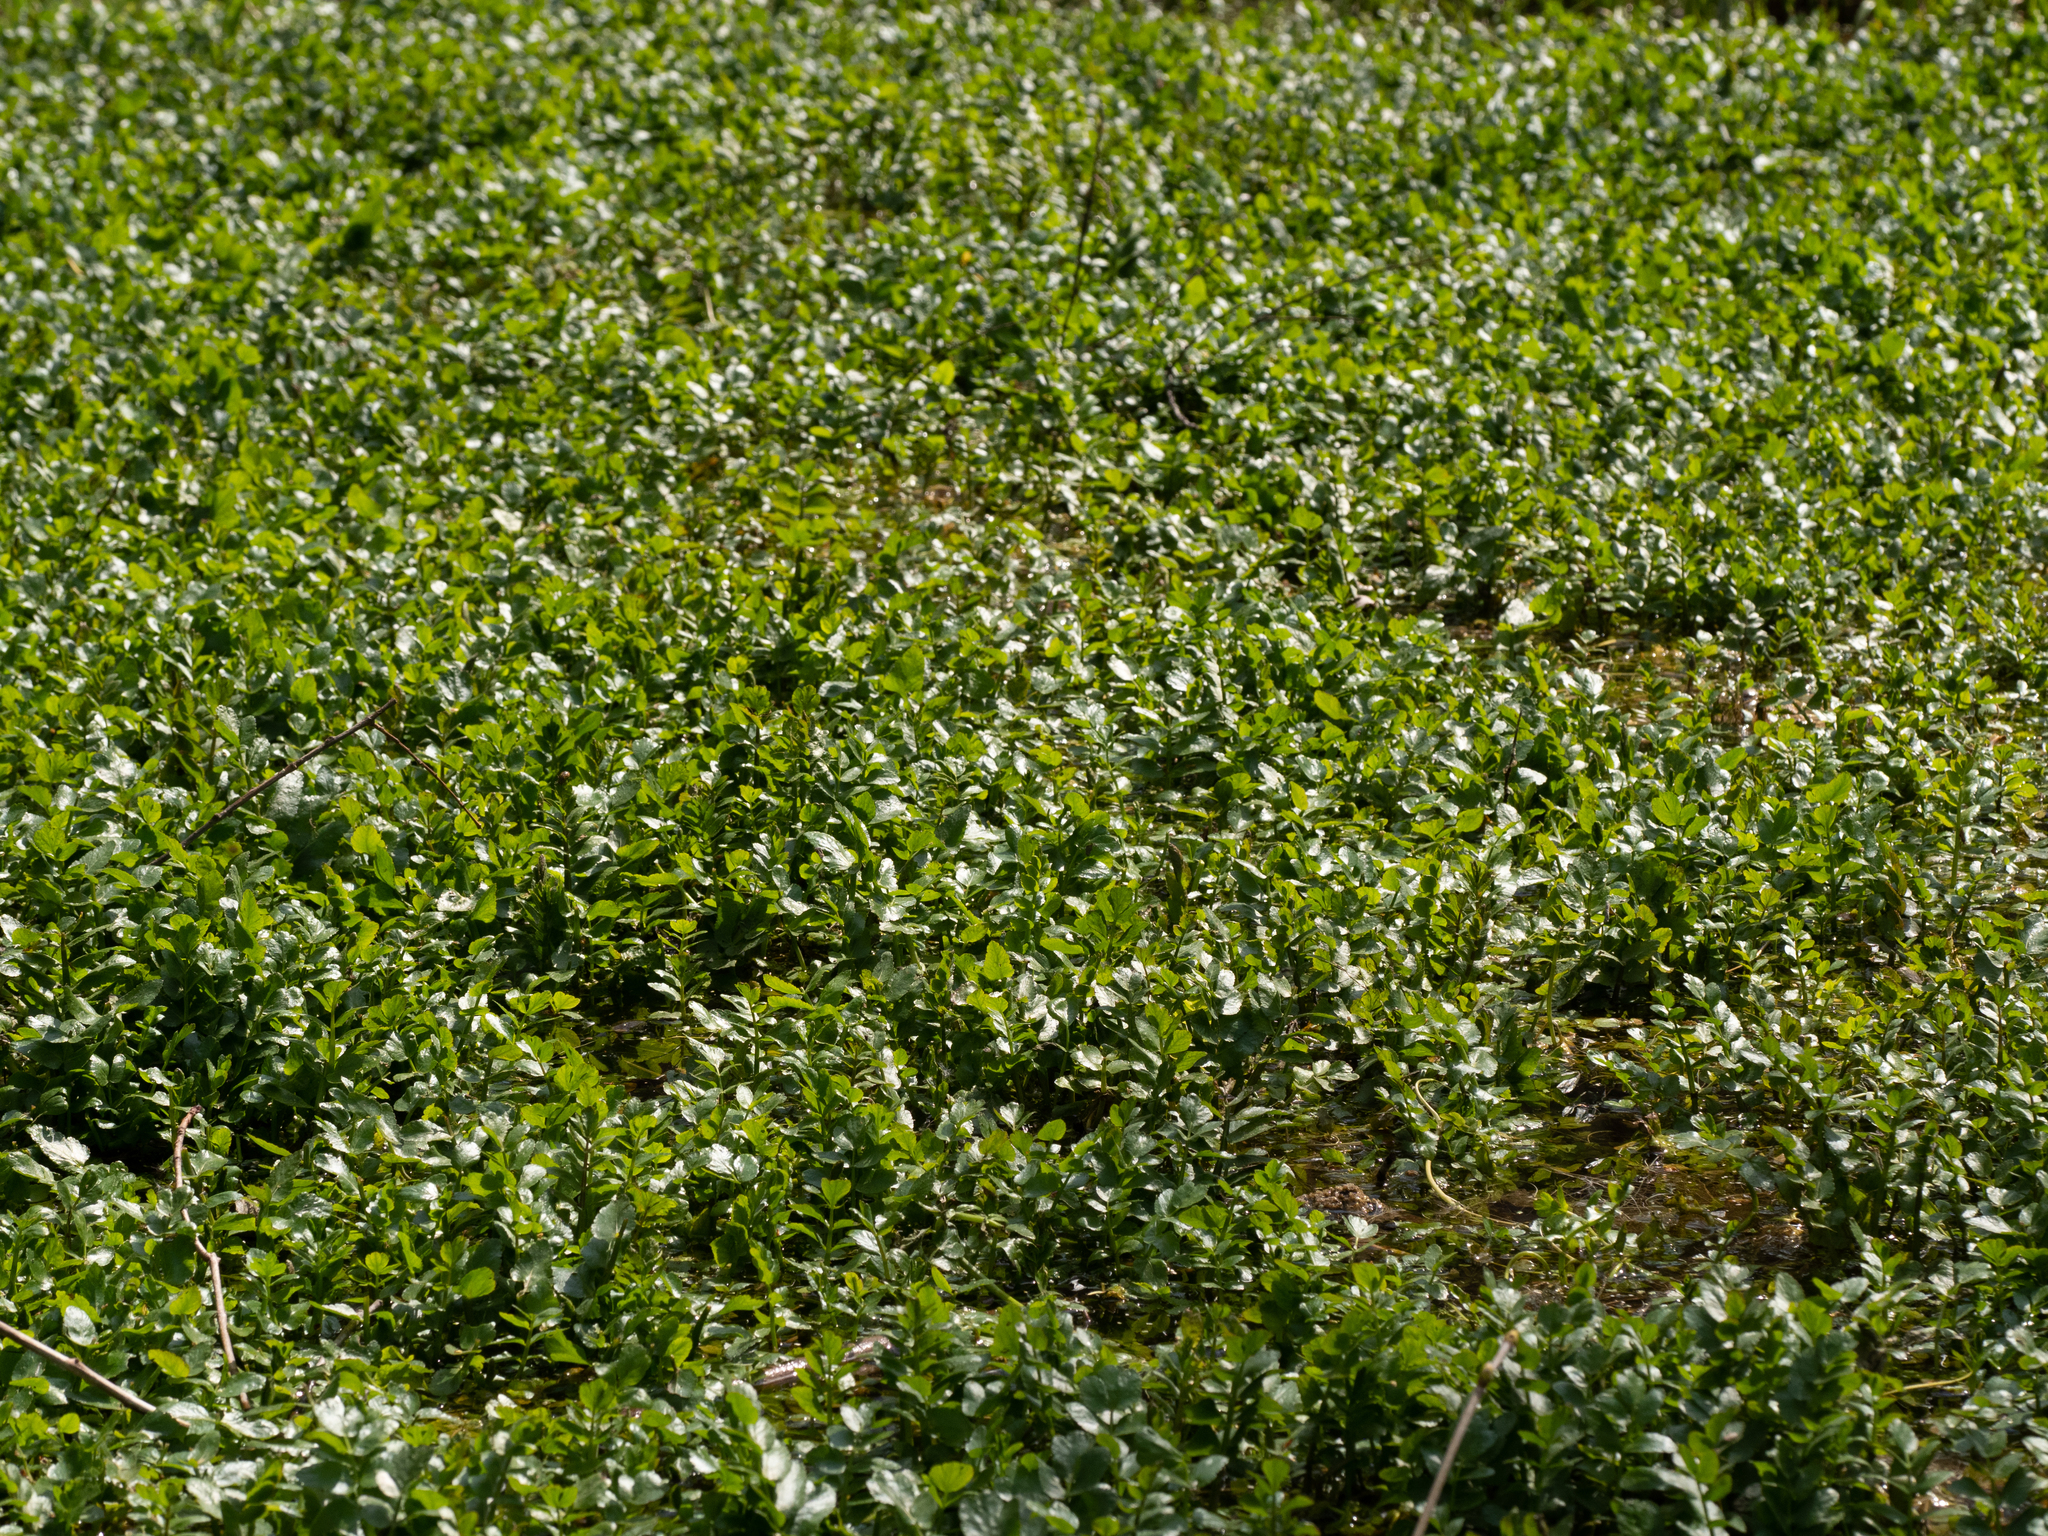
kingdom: Plantae
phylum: Tracheophyta
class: Magnoliopsida
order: Apiales
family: Apiaceae
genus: Berula
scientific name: Berula erecta
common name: Lesser water-parsnip
